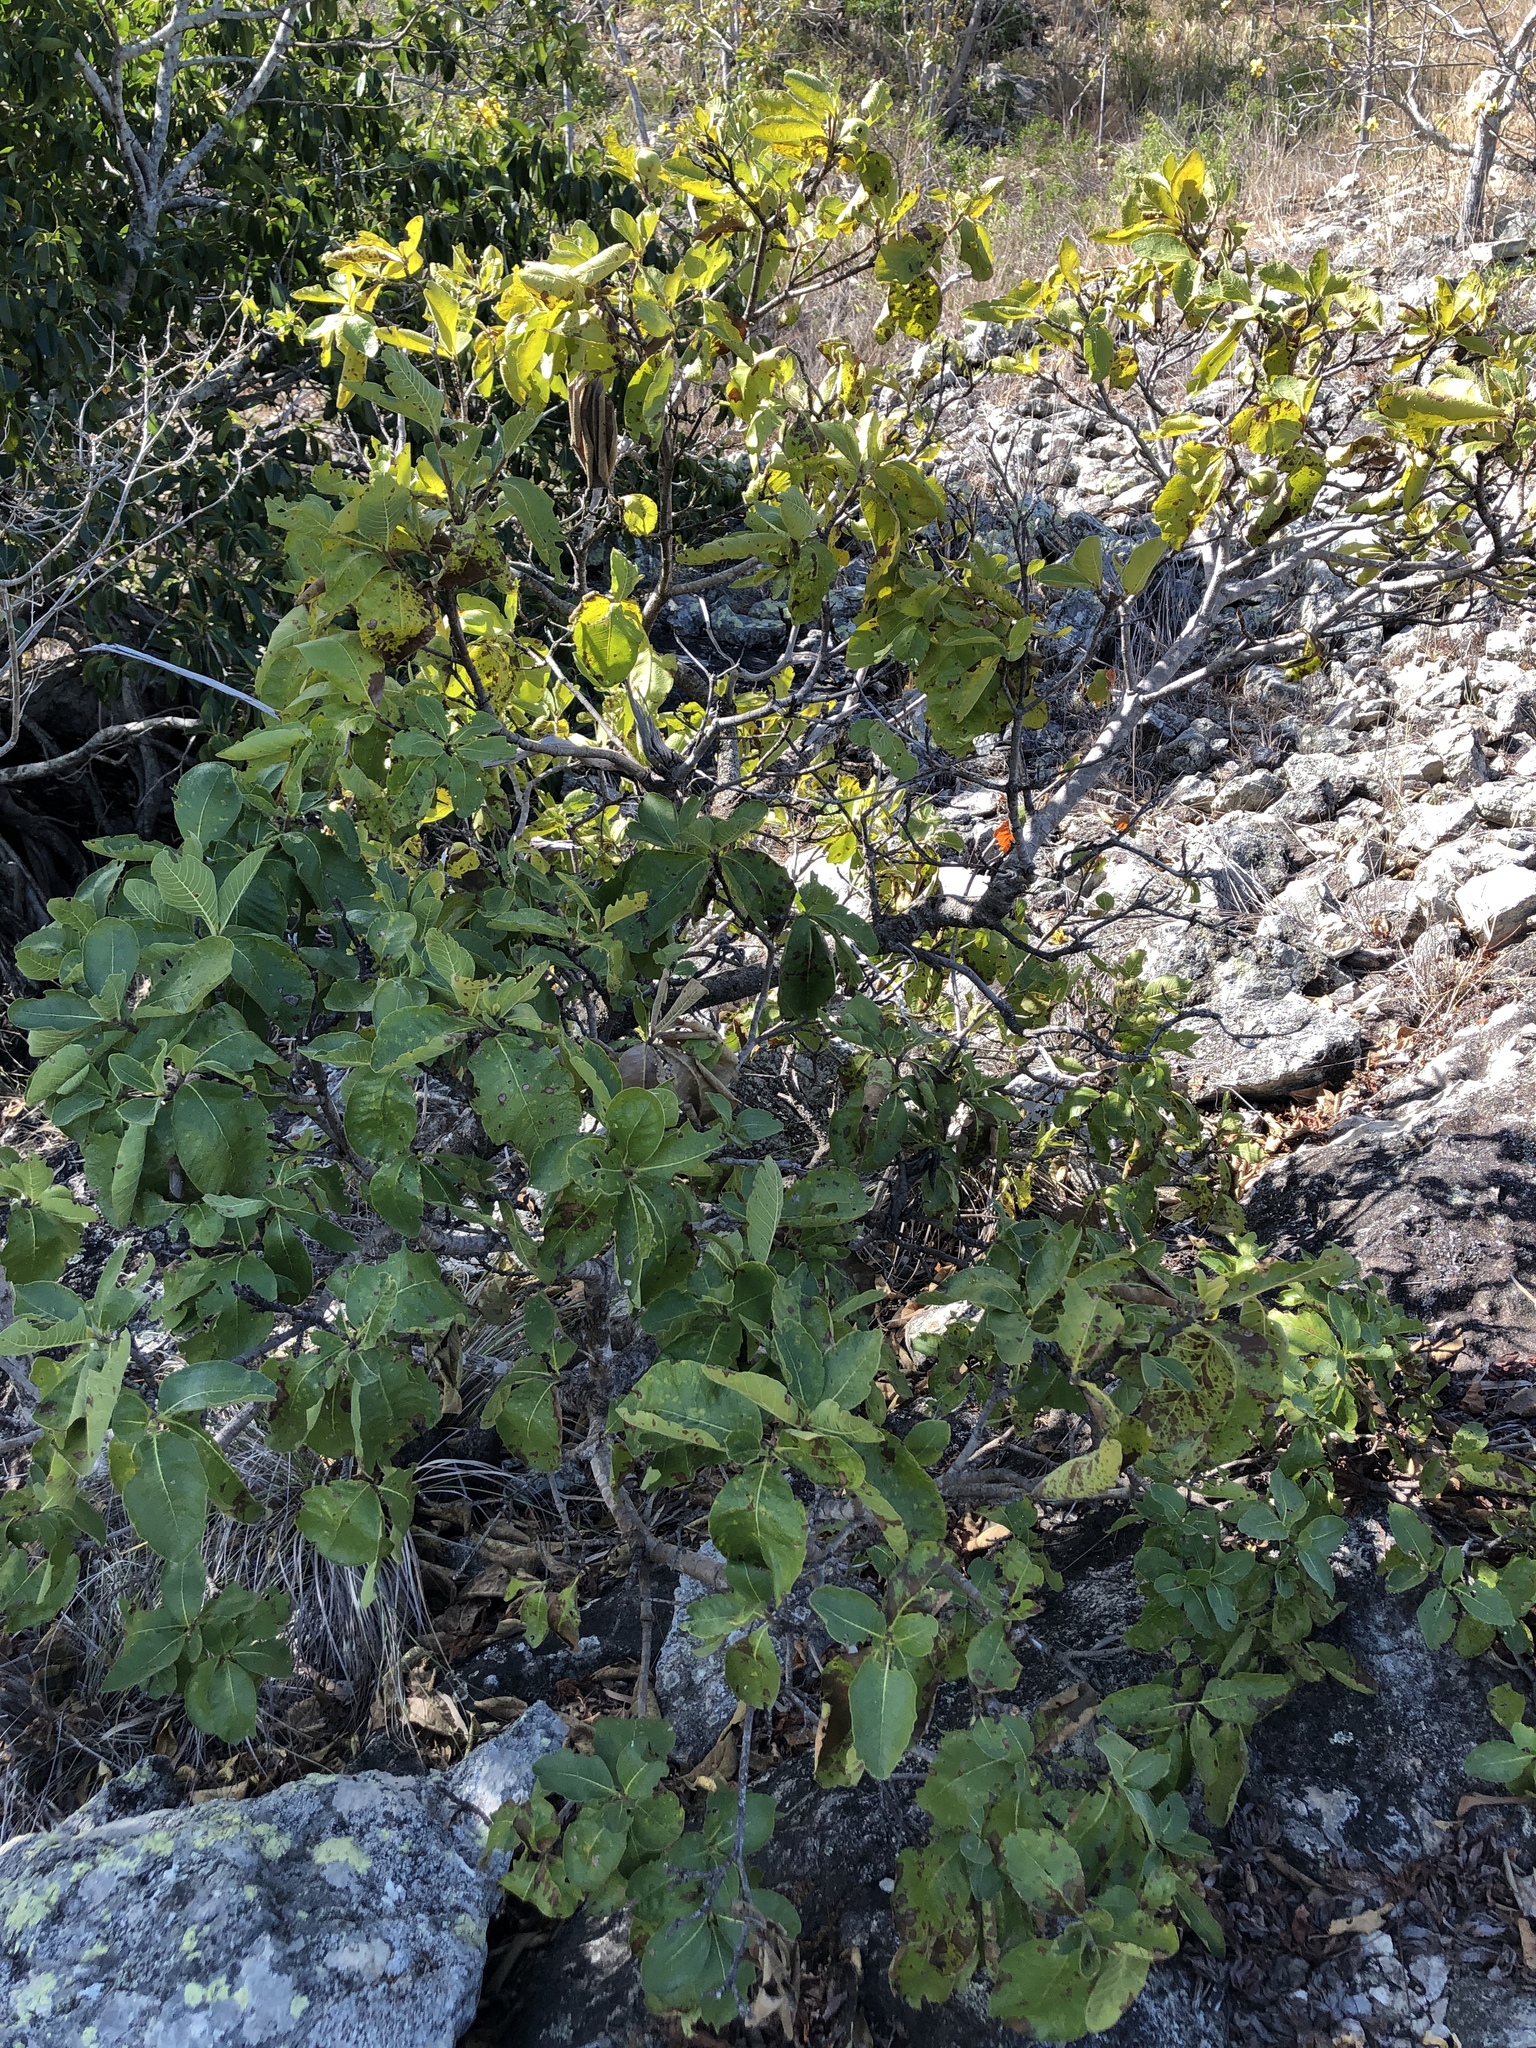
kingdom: Plantae
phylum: Tracheophyta
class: Magnoliopsida
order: Gentianales
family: Rubiaceae
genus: Larsenaikia
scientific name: Larsenaikia ochreata
